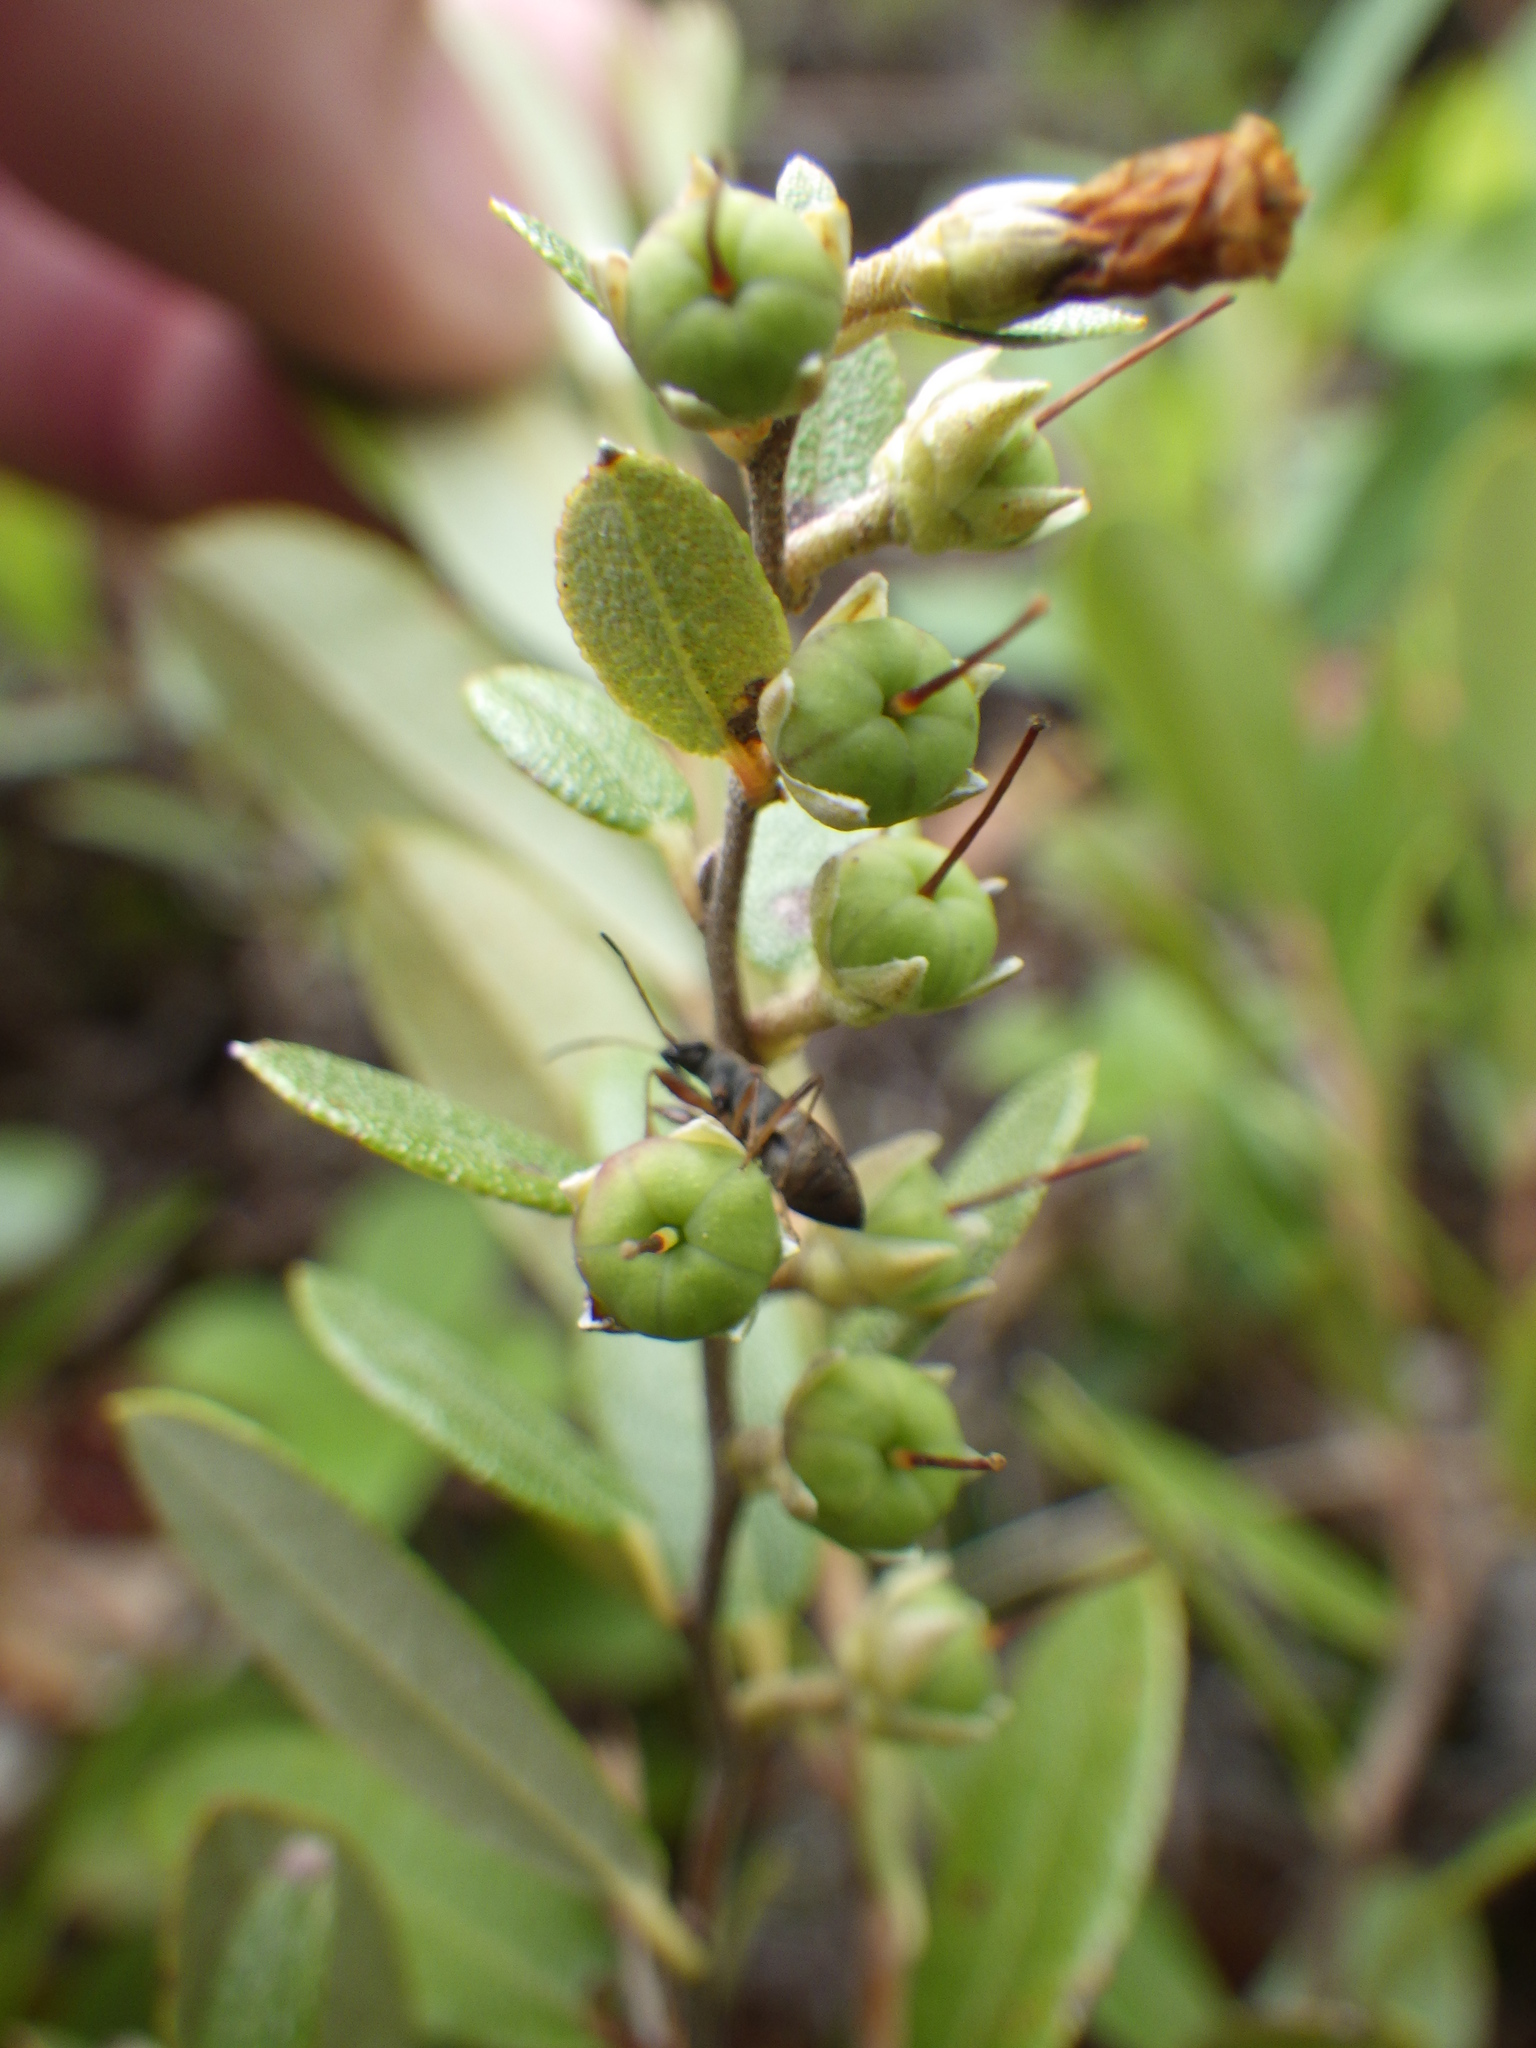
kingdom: Plantae
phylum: Tracheophyta
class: Magnoliopsida
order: Ericales
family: Ericaceae
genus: Chamaedaphne
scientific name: Chamaedaphne calyculata
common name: Leatherleaf
